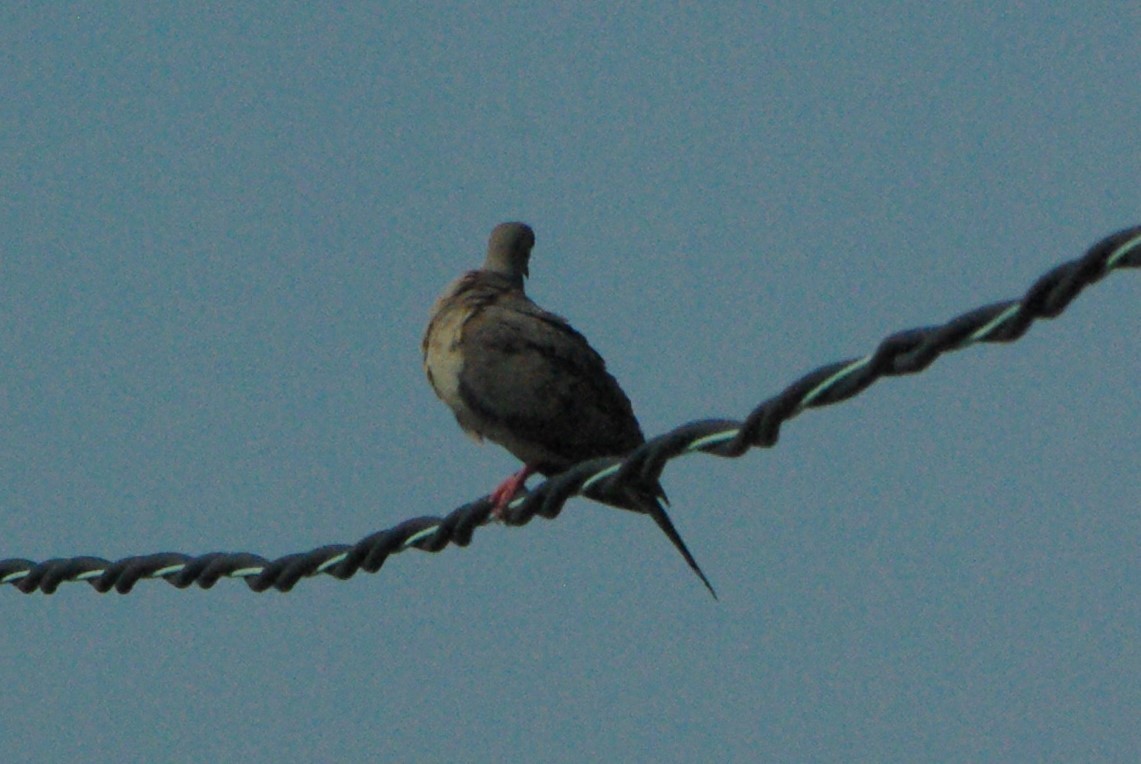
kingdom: Animalia
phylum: Chordata
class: Aves
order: Columbiformes
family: Columbidae
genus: Zenaida
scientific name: Zenaida macroura
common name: Mourning dove
